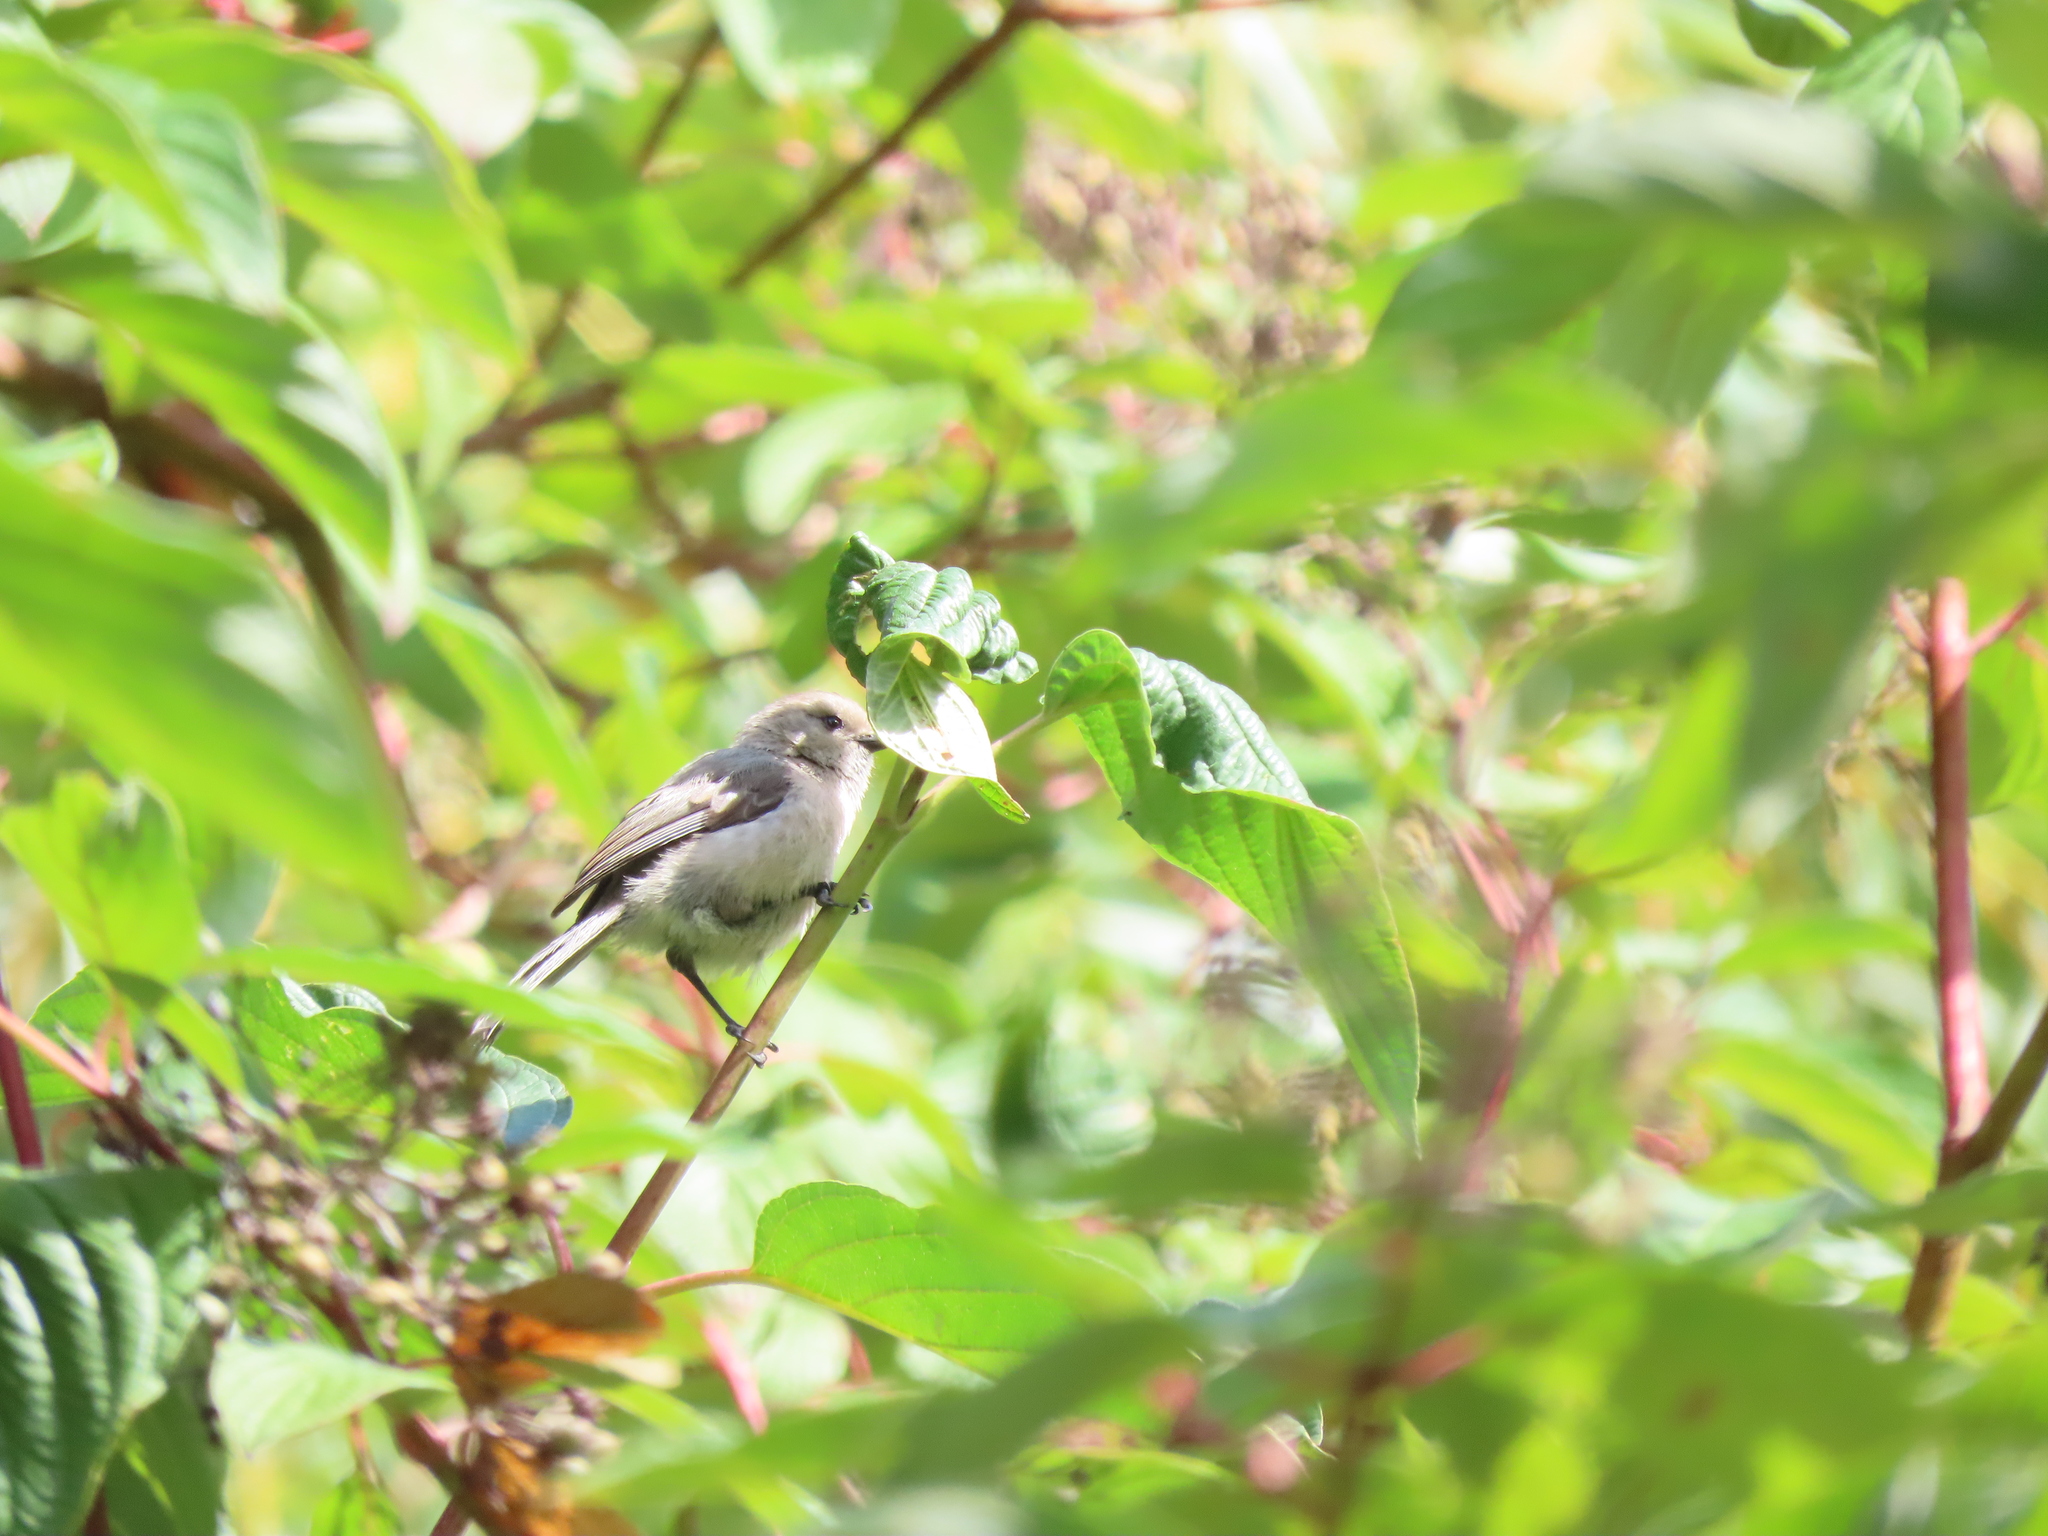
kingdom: Animalia
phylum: Chordata
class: Aves
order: Passeriformes
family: Aegithalidae
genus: Psaltriparus
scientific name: Psaltriparus minimus
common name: American bushtit
